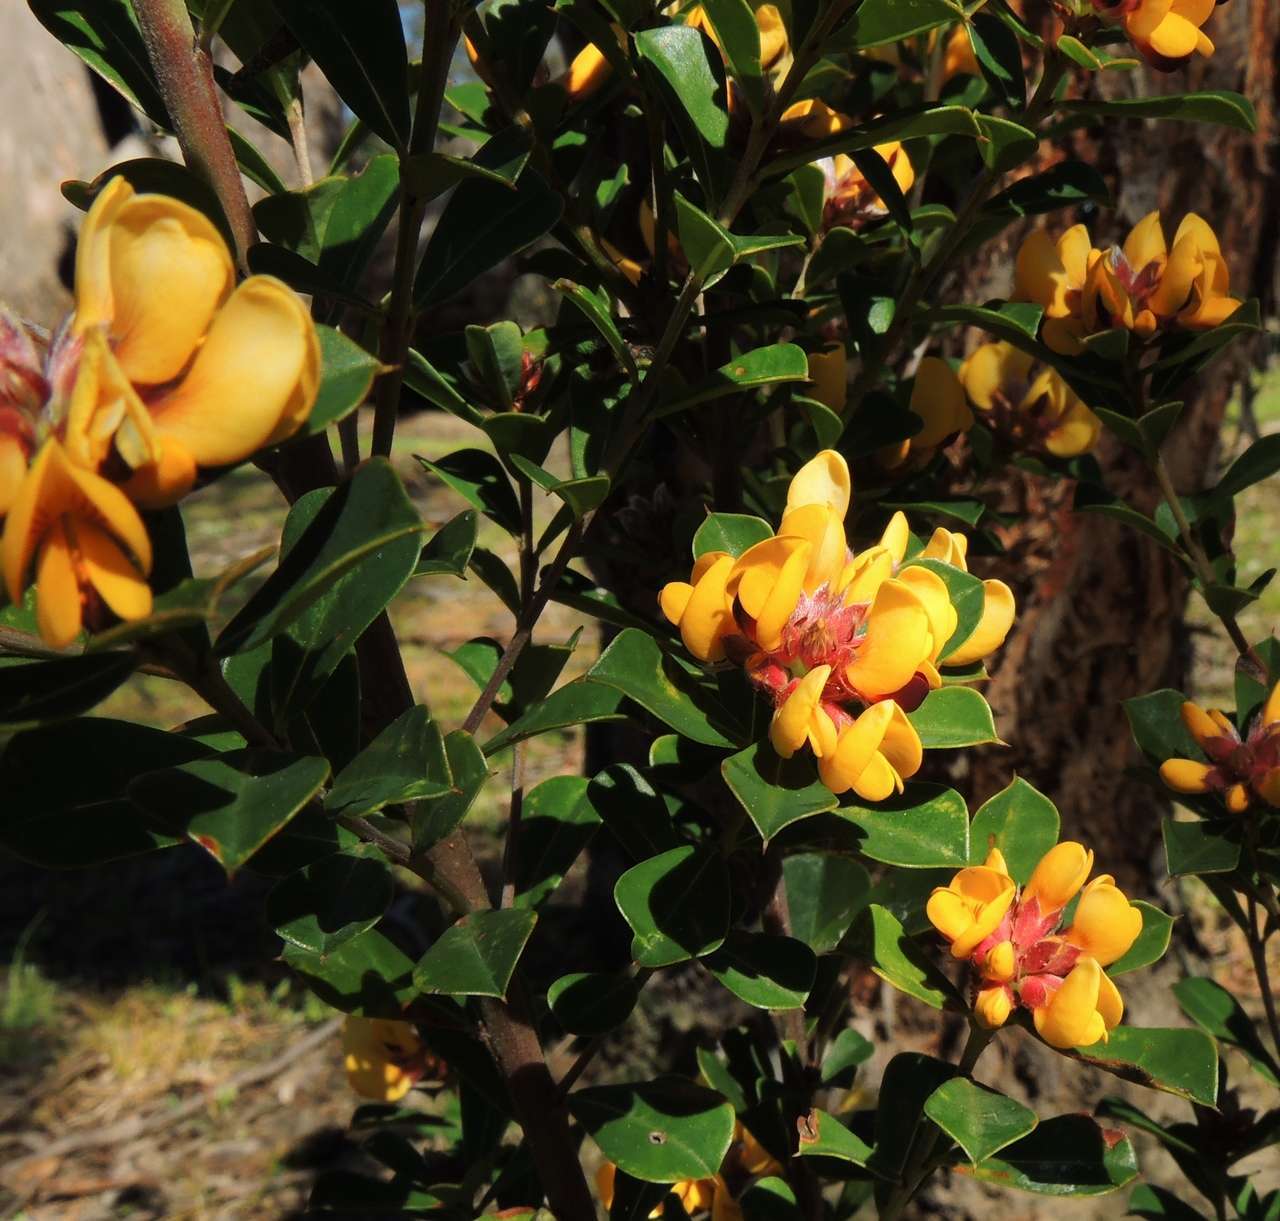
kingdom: Plantae
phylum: Tracheophyta
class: Magnoliopsida
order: Fabales
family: Fabaceae
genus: Pultenaea
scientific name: Pultenaea daphnoides
